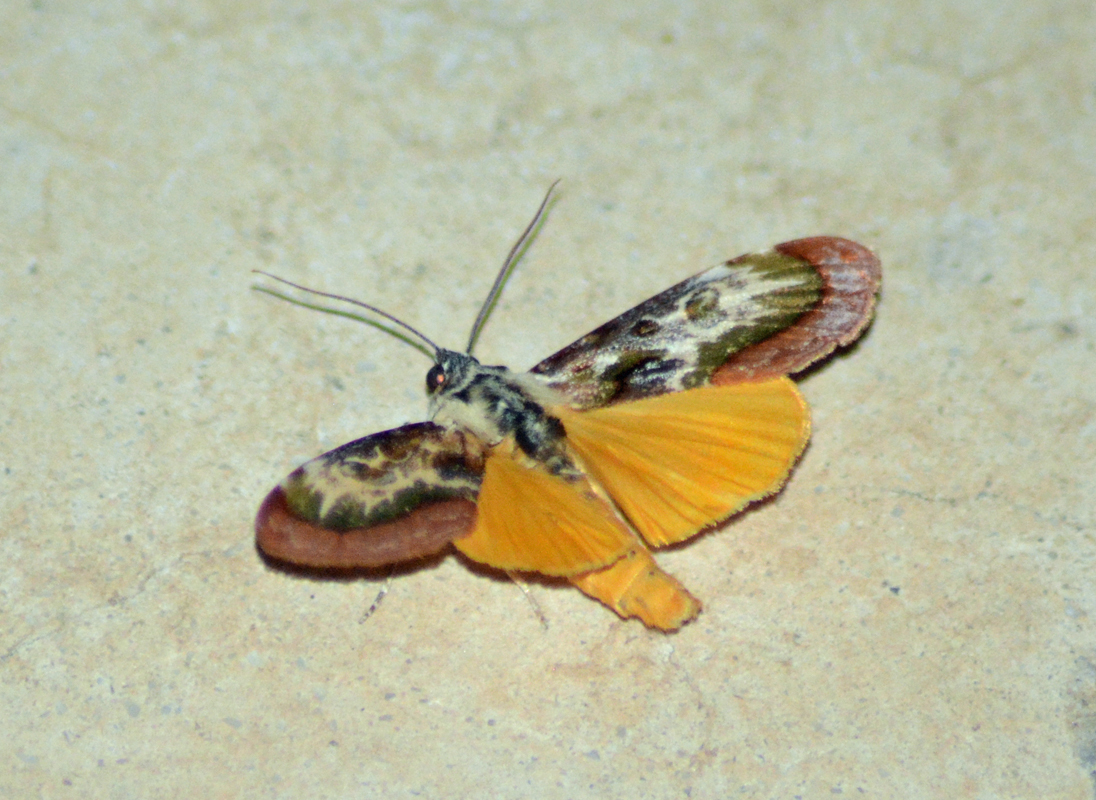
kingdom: Animalia
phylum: Arthropoda
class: Insecta
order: Lepidoptera
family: Noctuidae
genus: Epithisanotia
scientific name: Epithisanotia sanctijohannis
